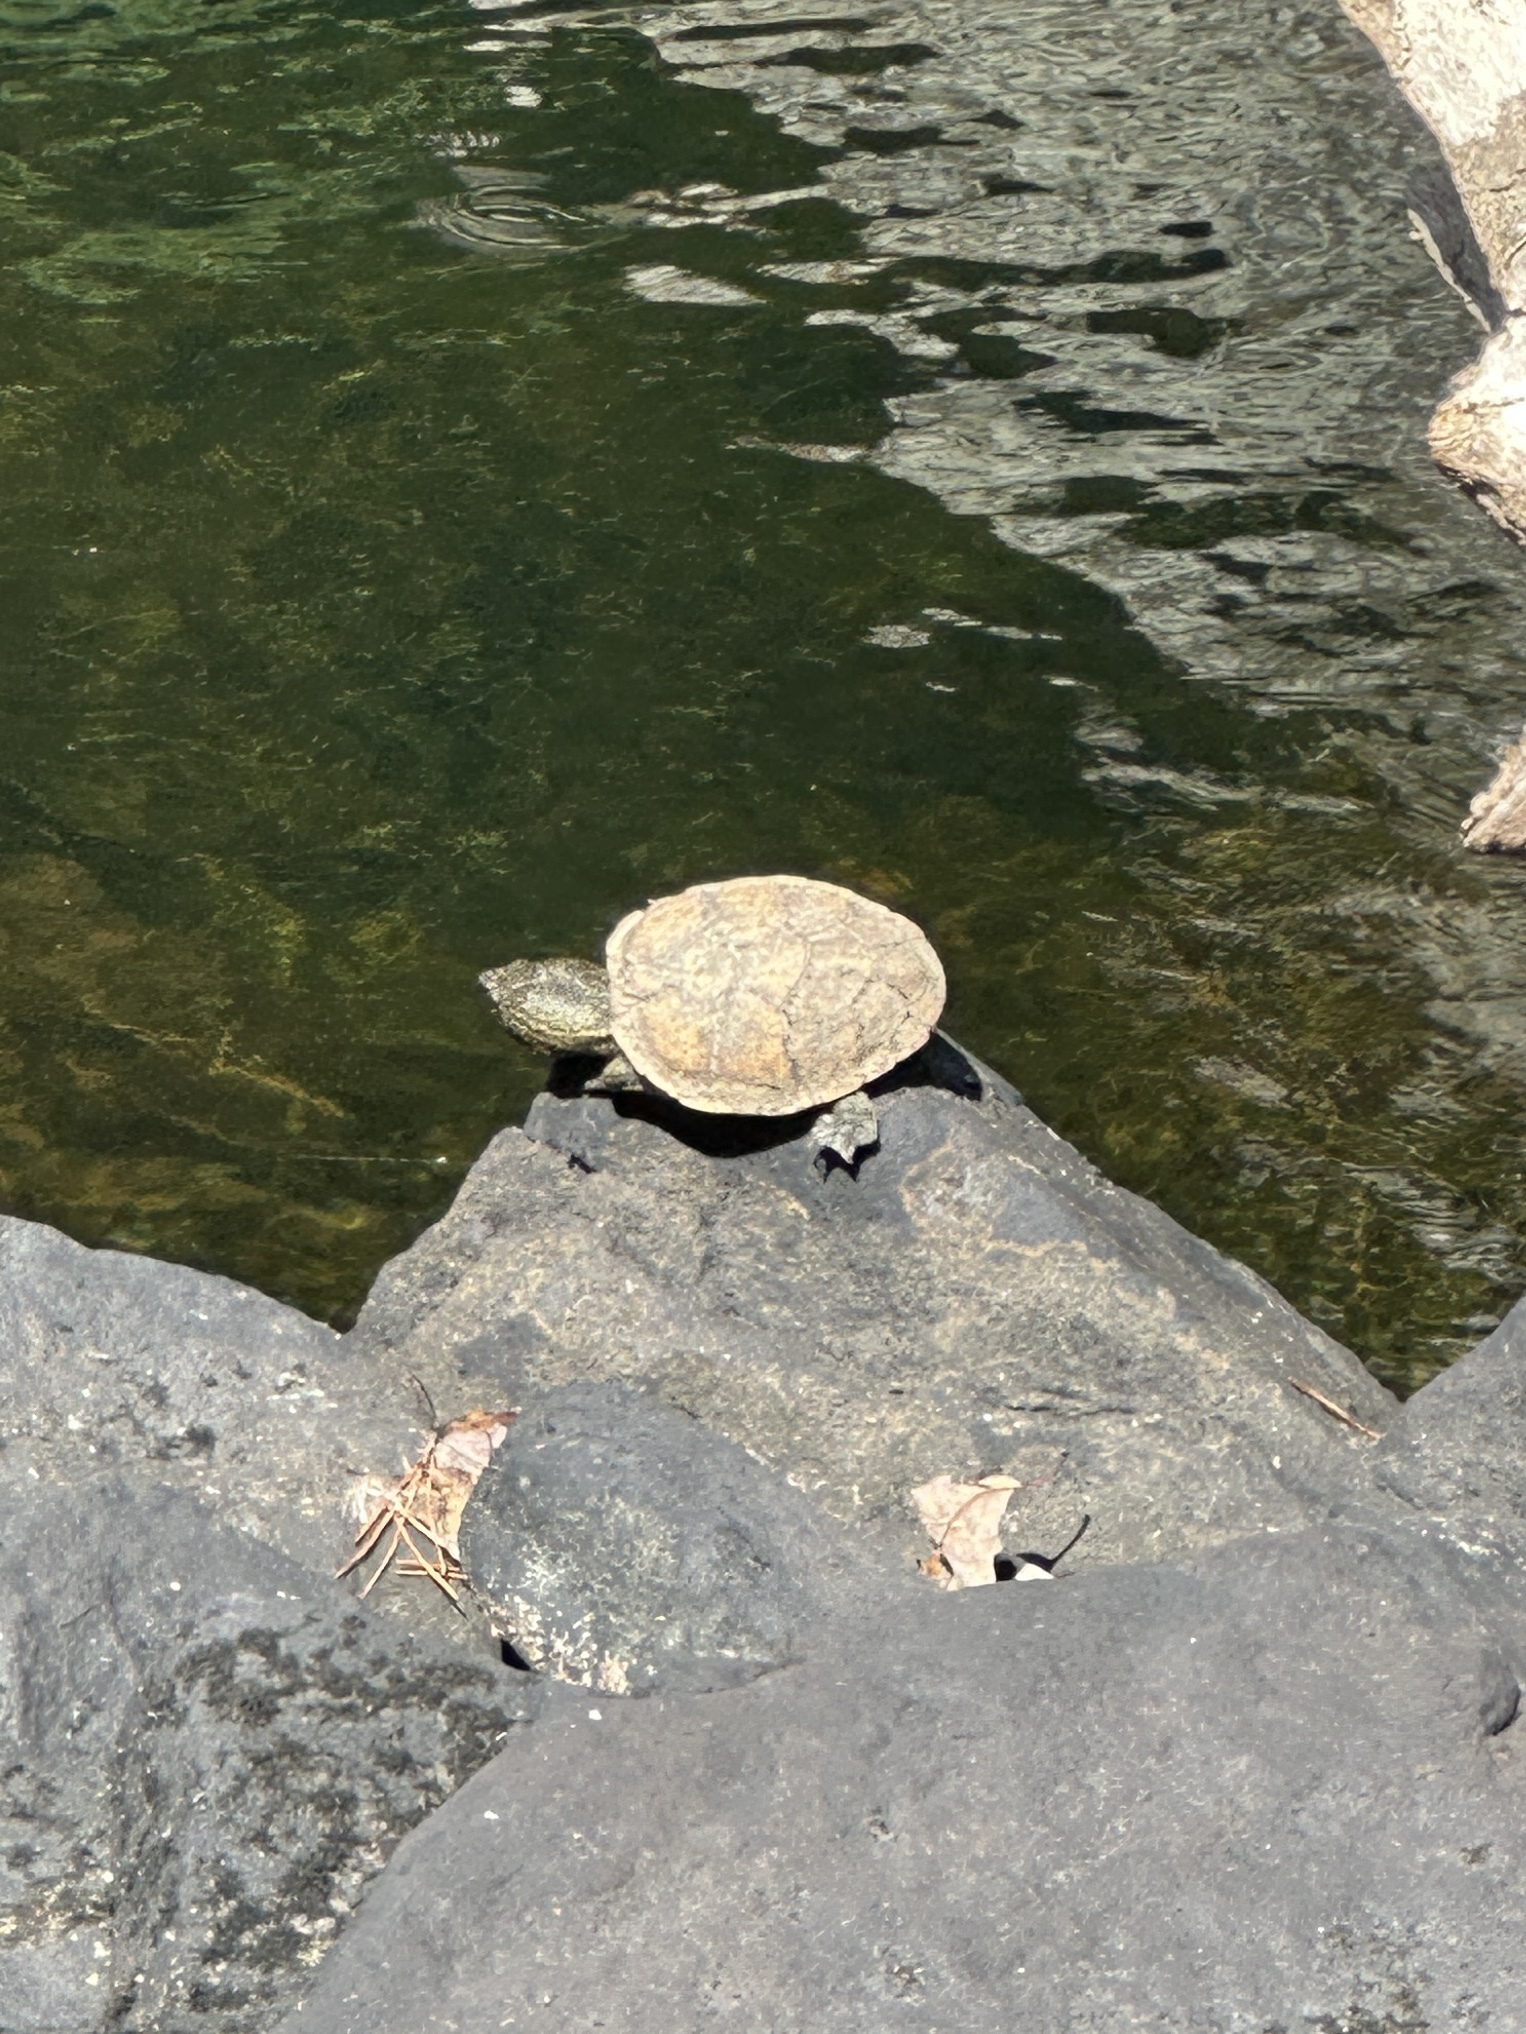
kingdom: Animalia
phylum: Chordata
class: Testudines
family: Kinosternidae
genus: Sternotherus
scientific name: Sternotherus peltifer
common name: Stripeneck musk turtle
